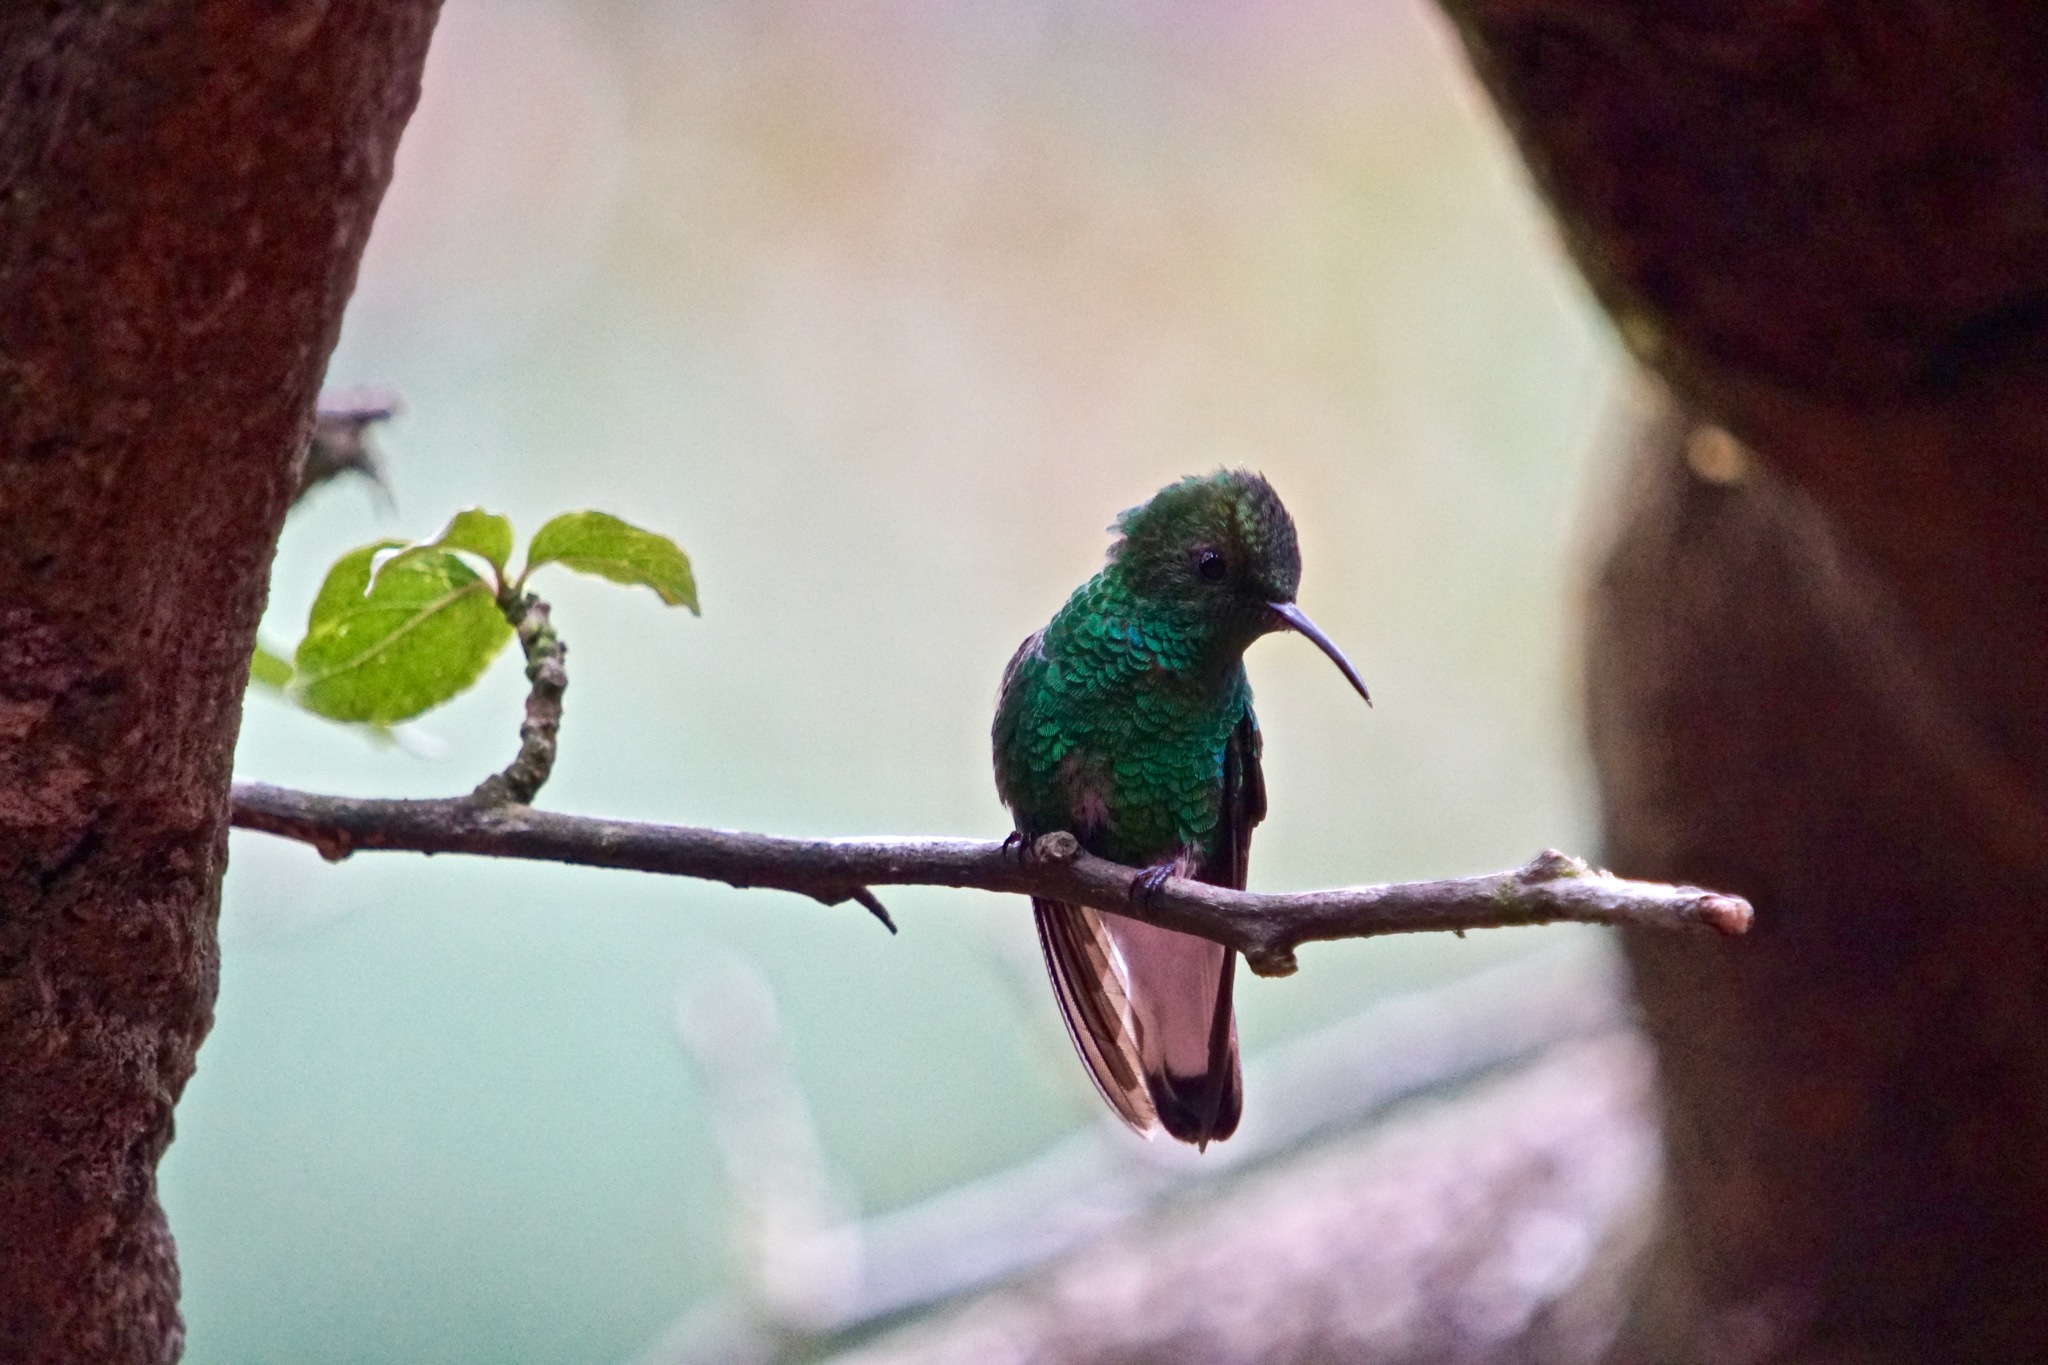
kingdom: Animalia
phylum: Chordata
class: Aves
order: Apodiformes
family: Trochilidae
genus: Microchera
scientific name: Microchera cupreiceps
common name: Coppery-headed emerald
